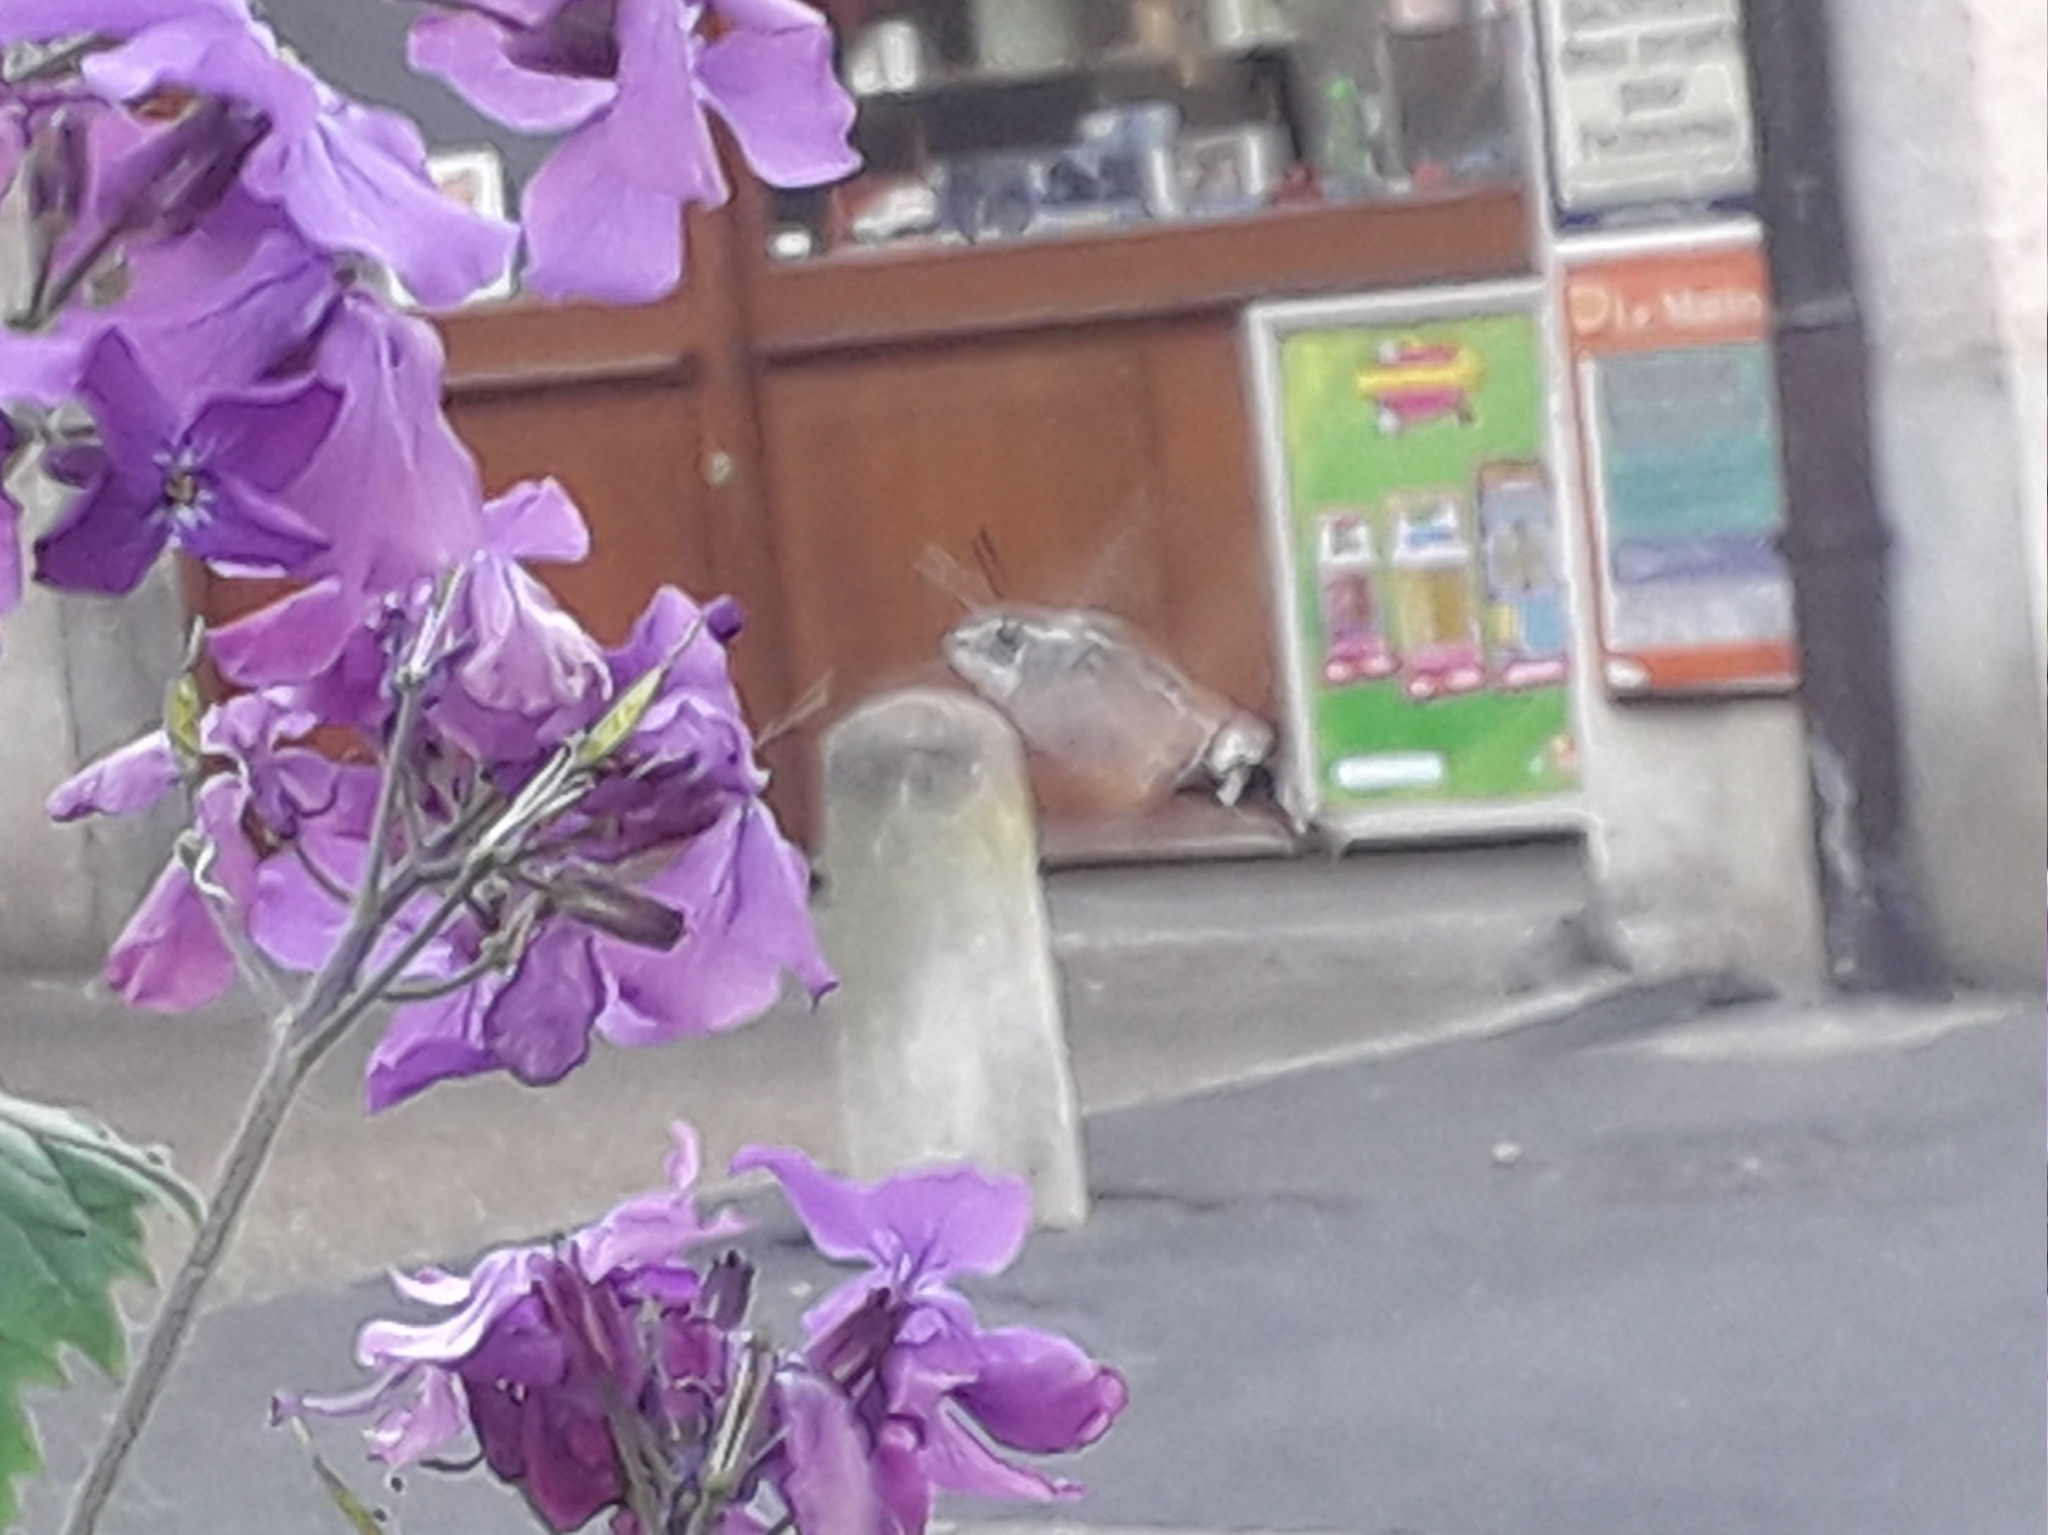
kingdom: Animalia
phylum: Arthropoda
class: Insecta
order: Lepidoptera
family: Sphingidae
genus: Macroglossum
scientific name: Macroglossum stellatarum
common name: Humming-bird hawk-moth
